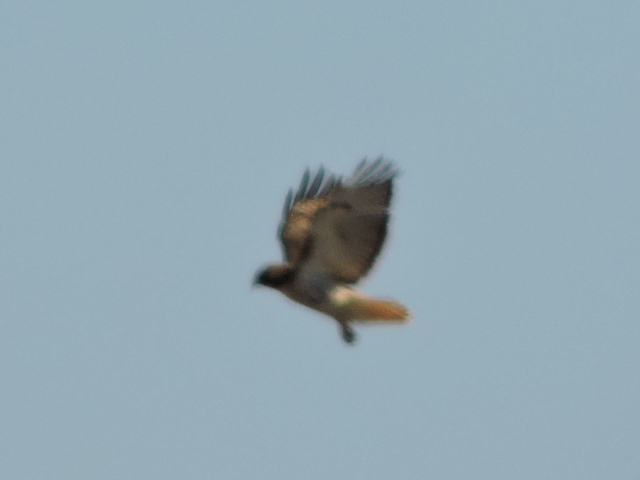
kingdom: Animalia
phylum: Chordata
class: Aves
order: Accipitriformes
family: Accipitridae
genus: Buteo
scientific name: Buteo jamaicensis
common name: Red-tailed hawk
